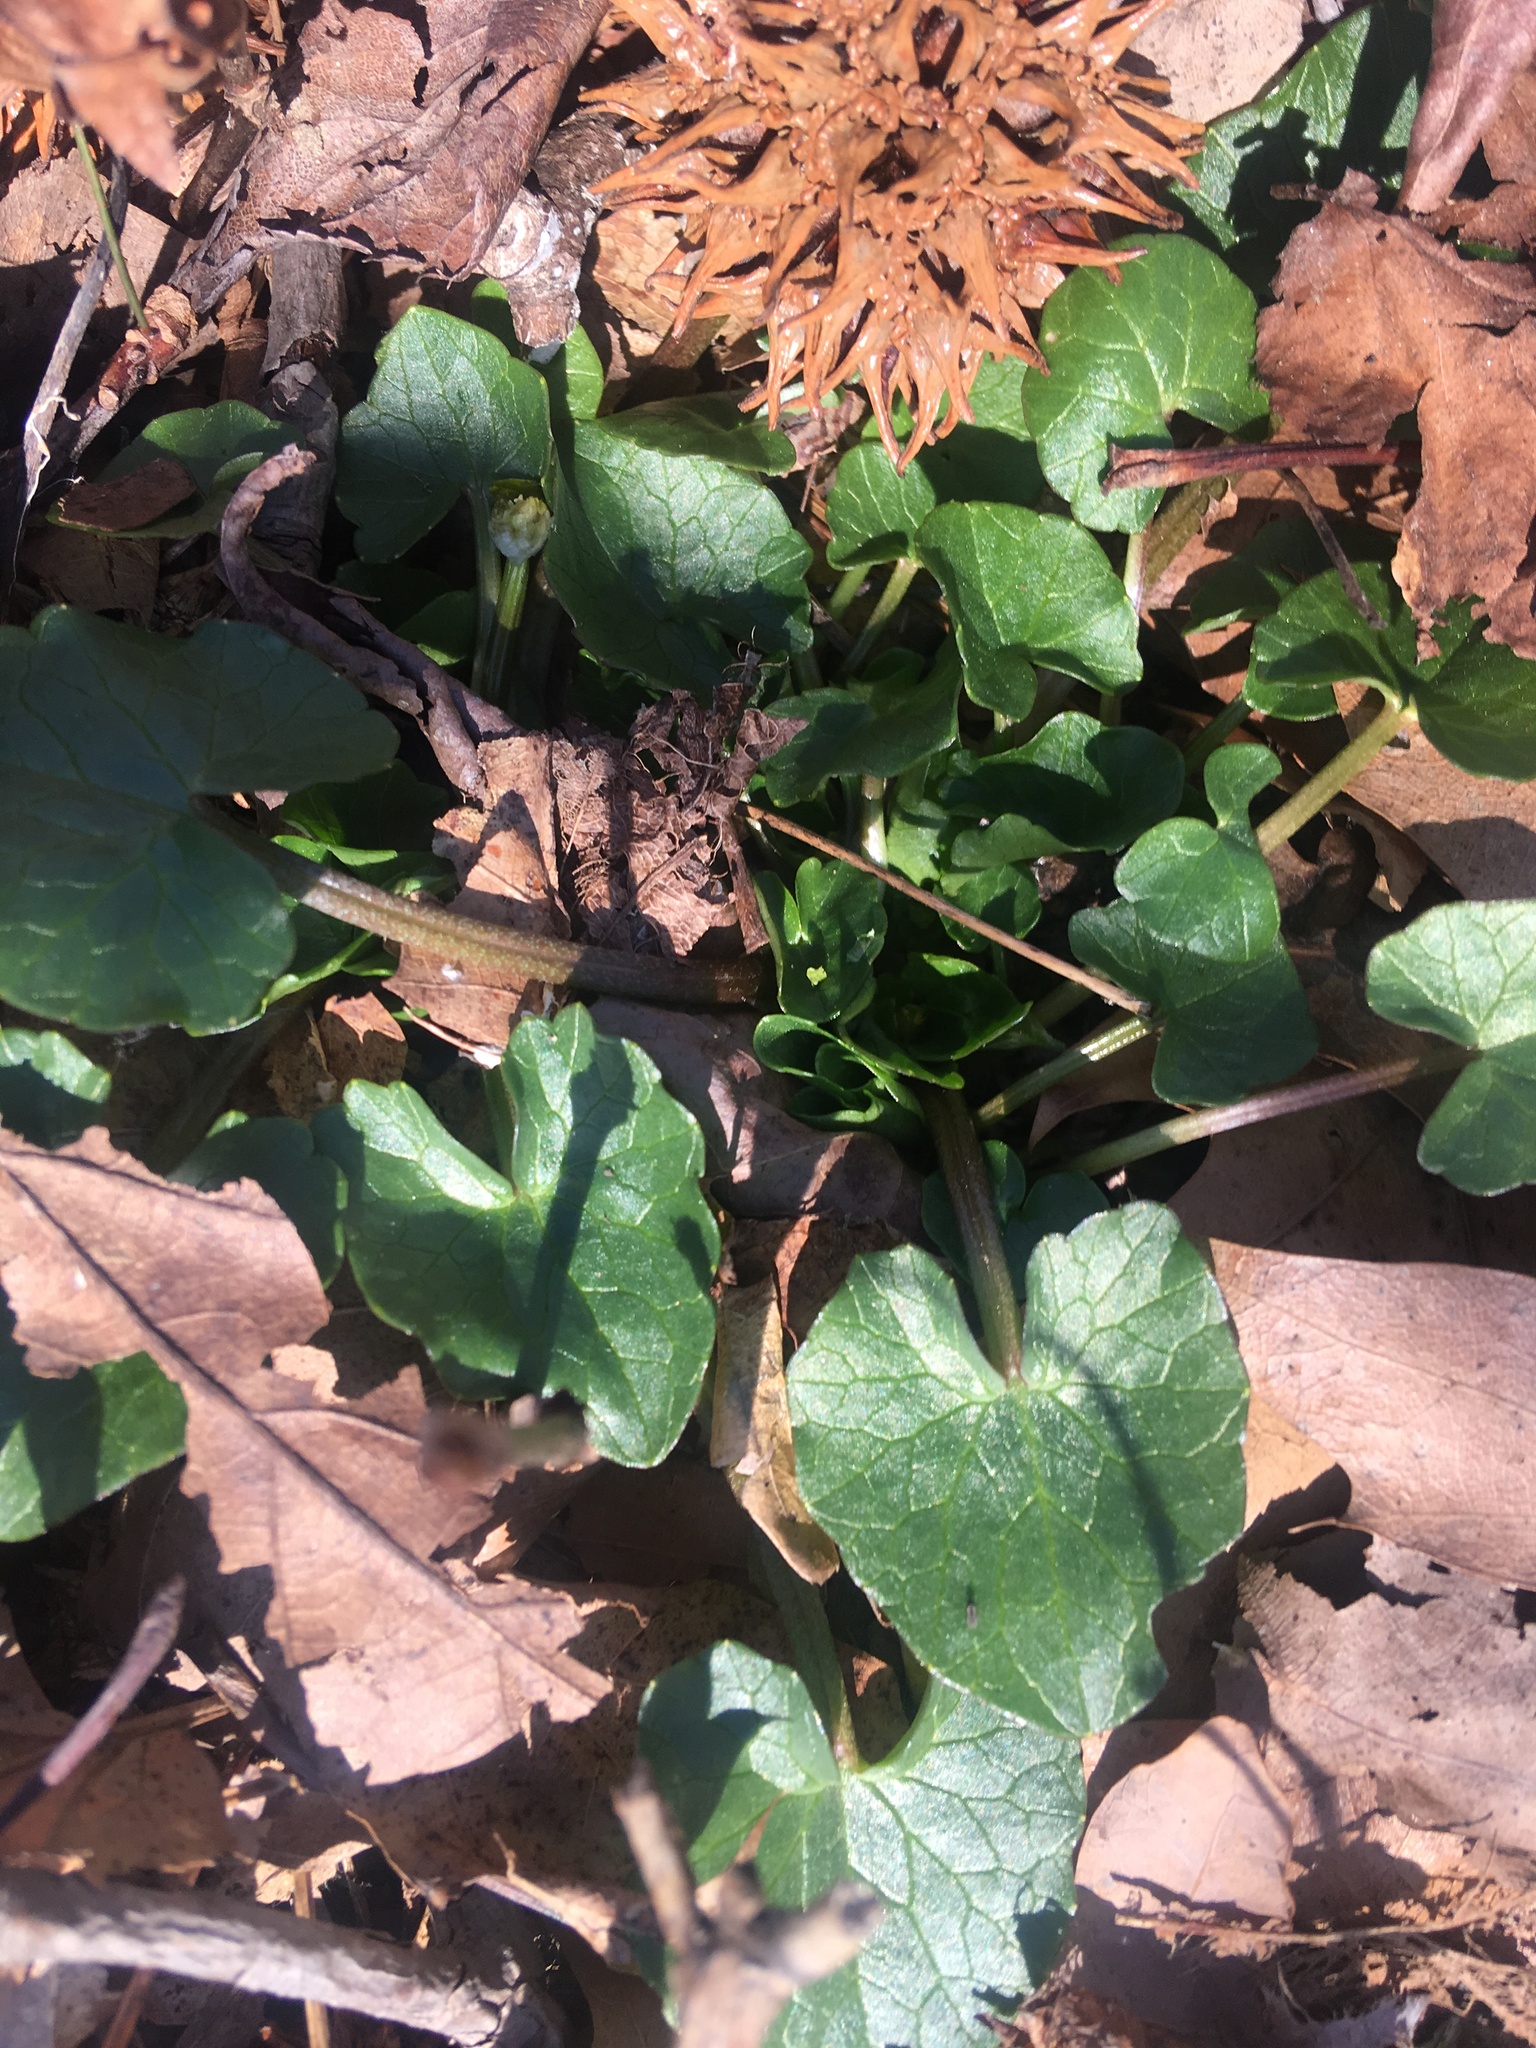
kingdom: Plantae
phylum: Tracheophyta
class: Magnoliopsida
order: Ranunculales
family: Ranunculaceae
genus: Ficaria
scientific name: Ficaria verna
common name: Lesser celandine
